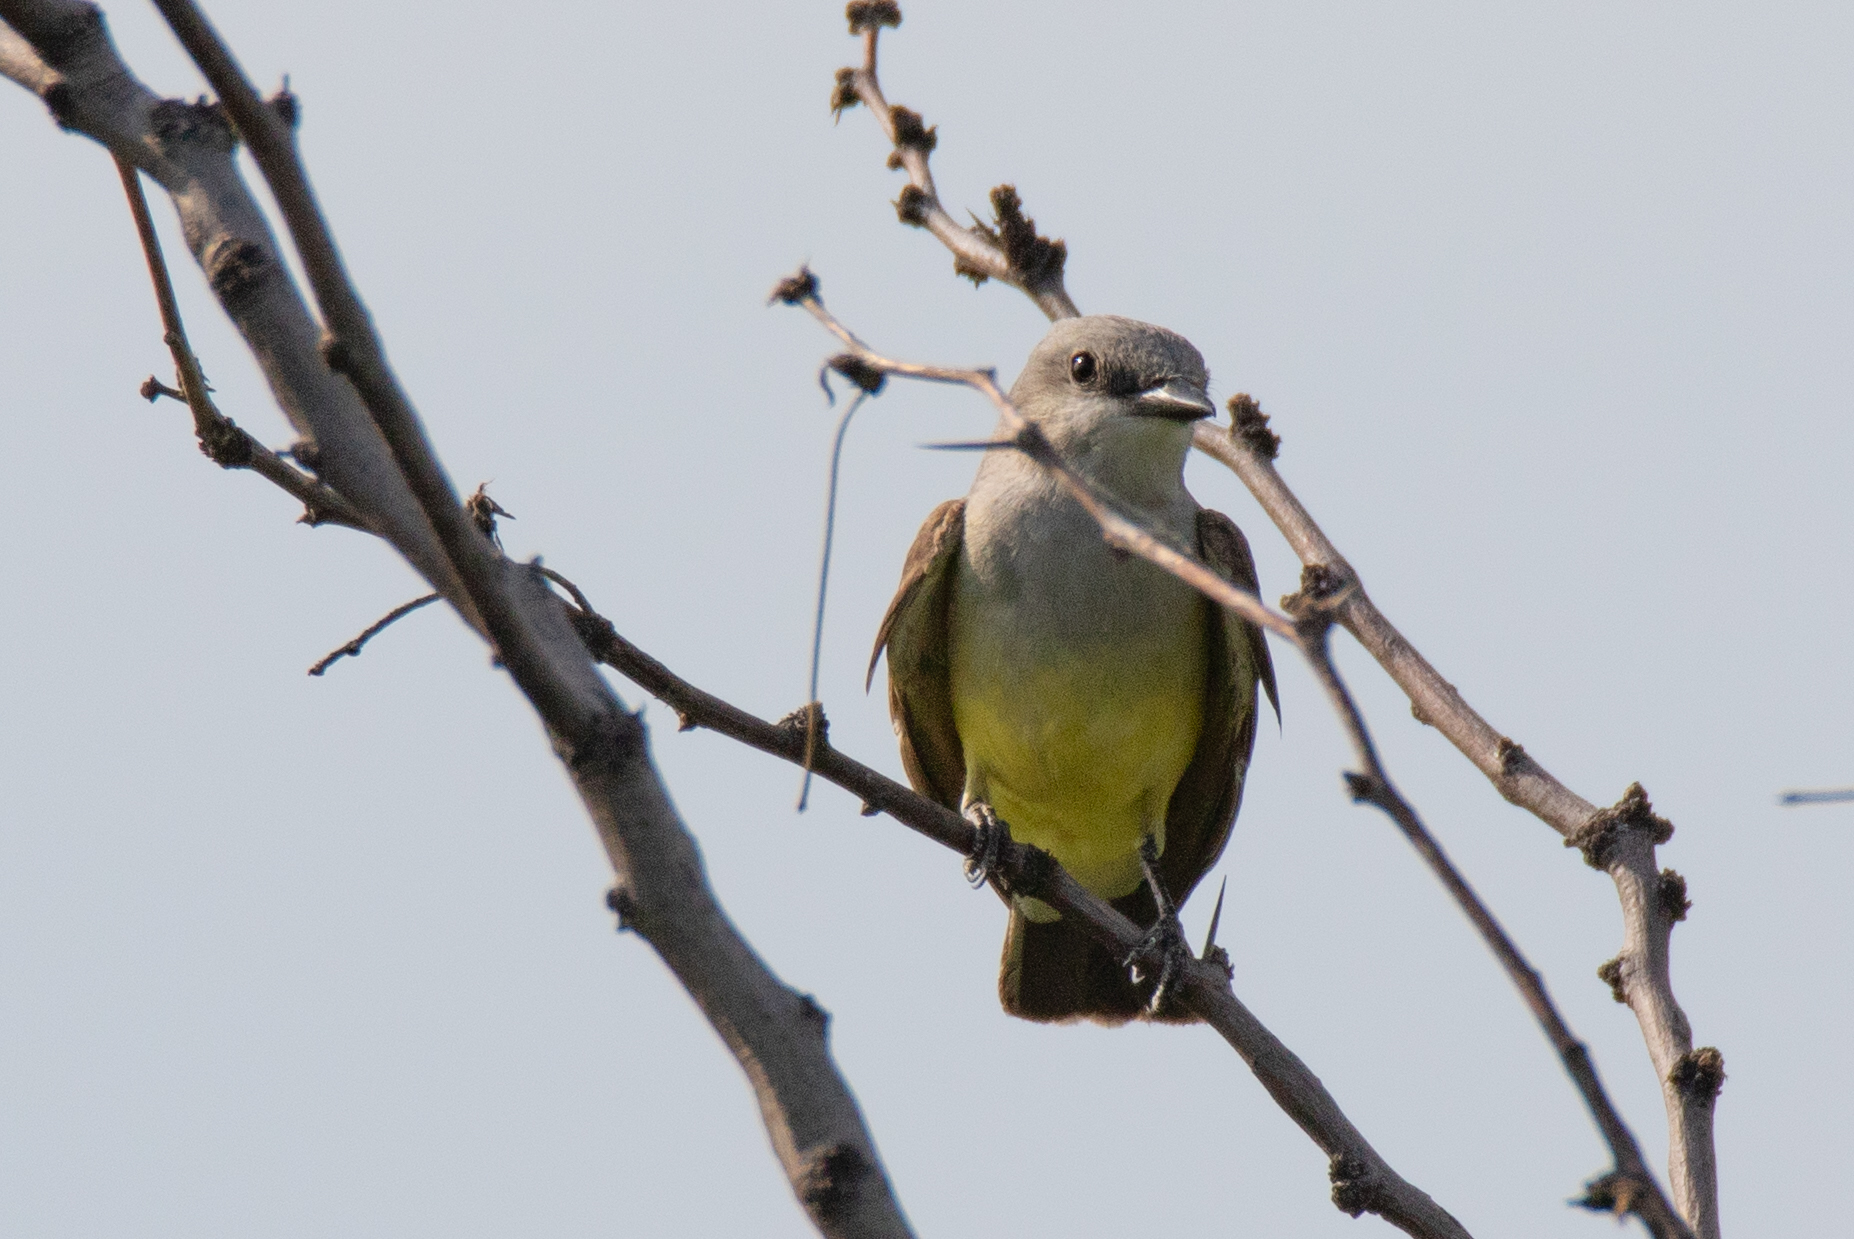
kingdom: Animalia
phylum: Chordata
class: Aves
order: Passeriformes
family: Tyrannidae
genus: Tyrannus
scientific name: Tyrannus verticalis
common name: Western kingbird
